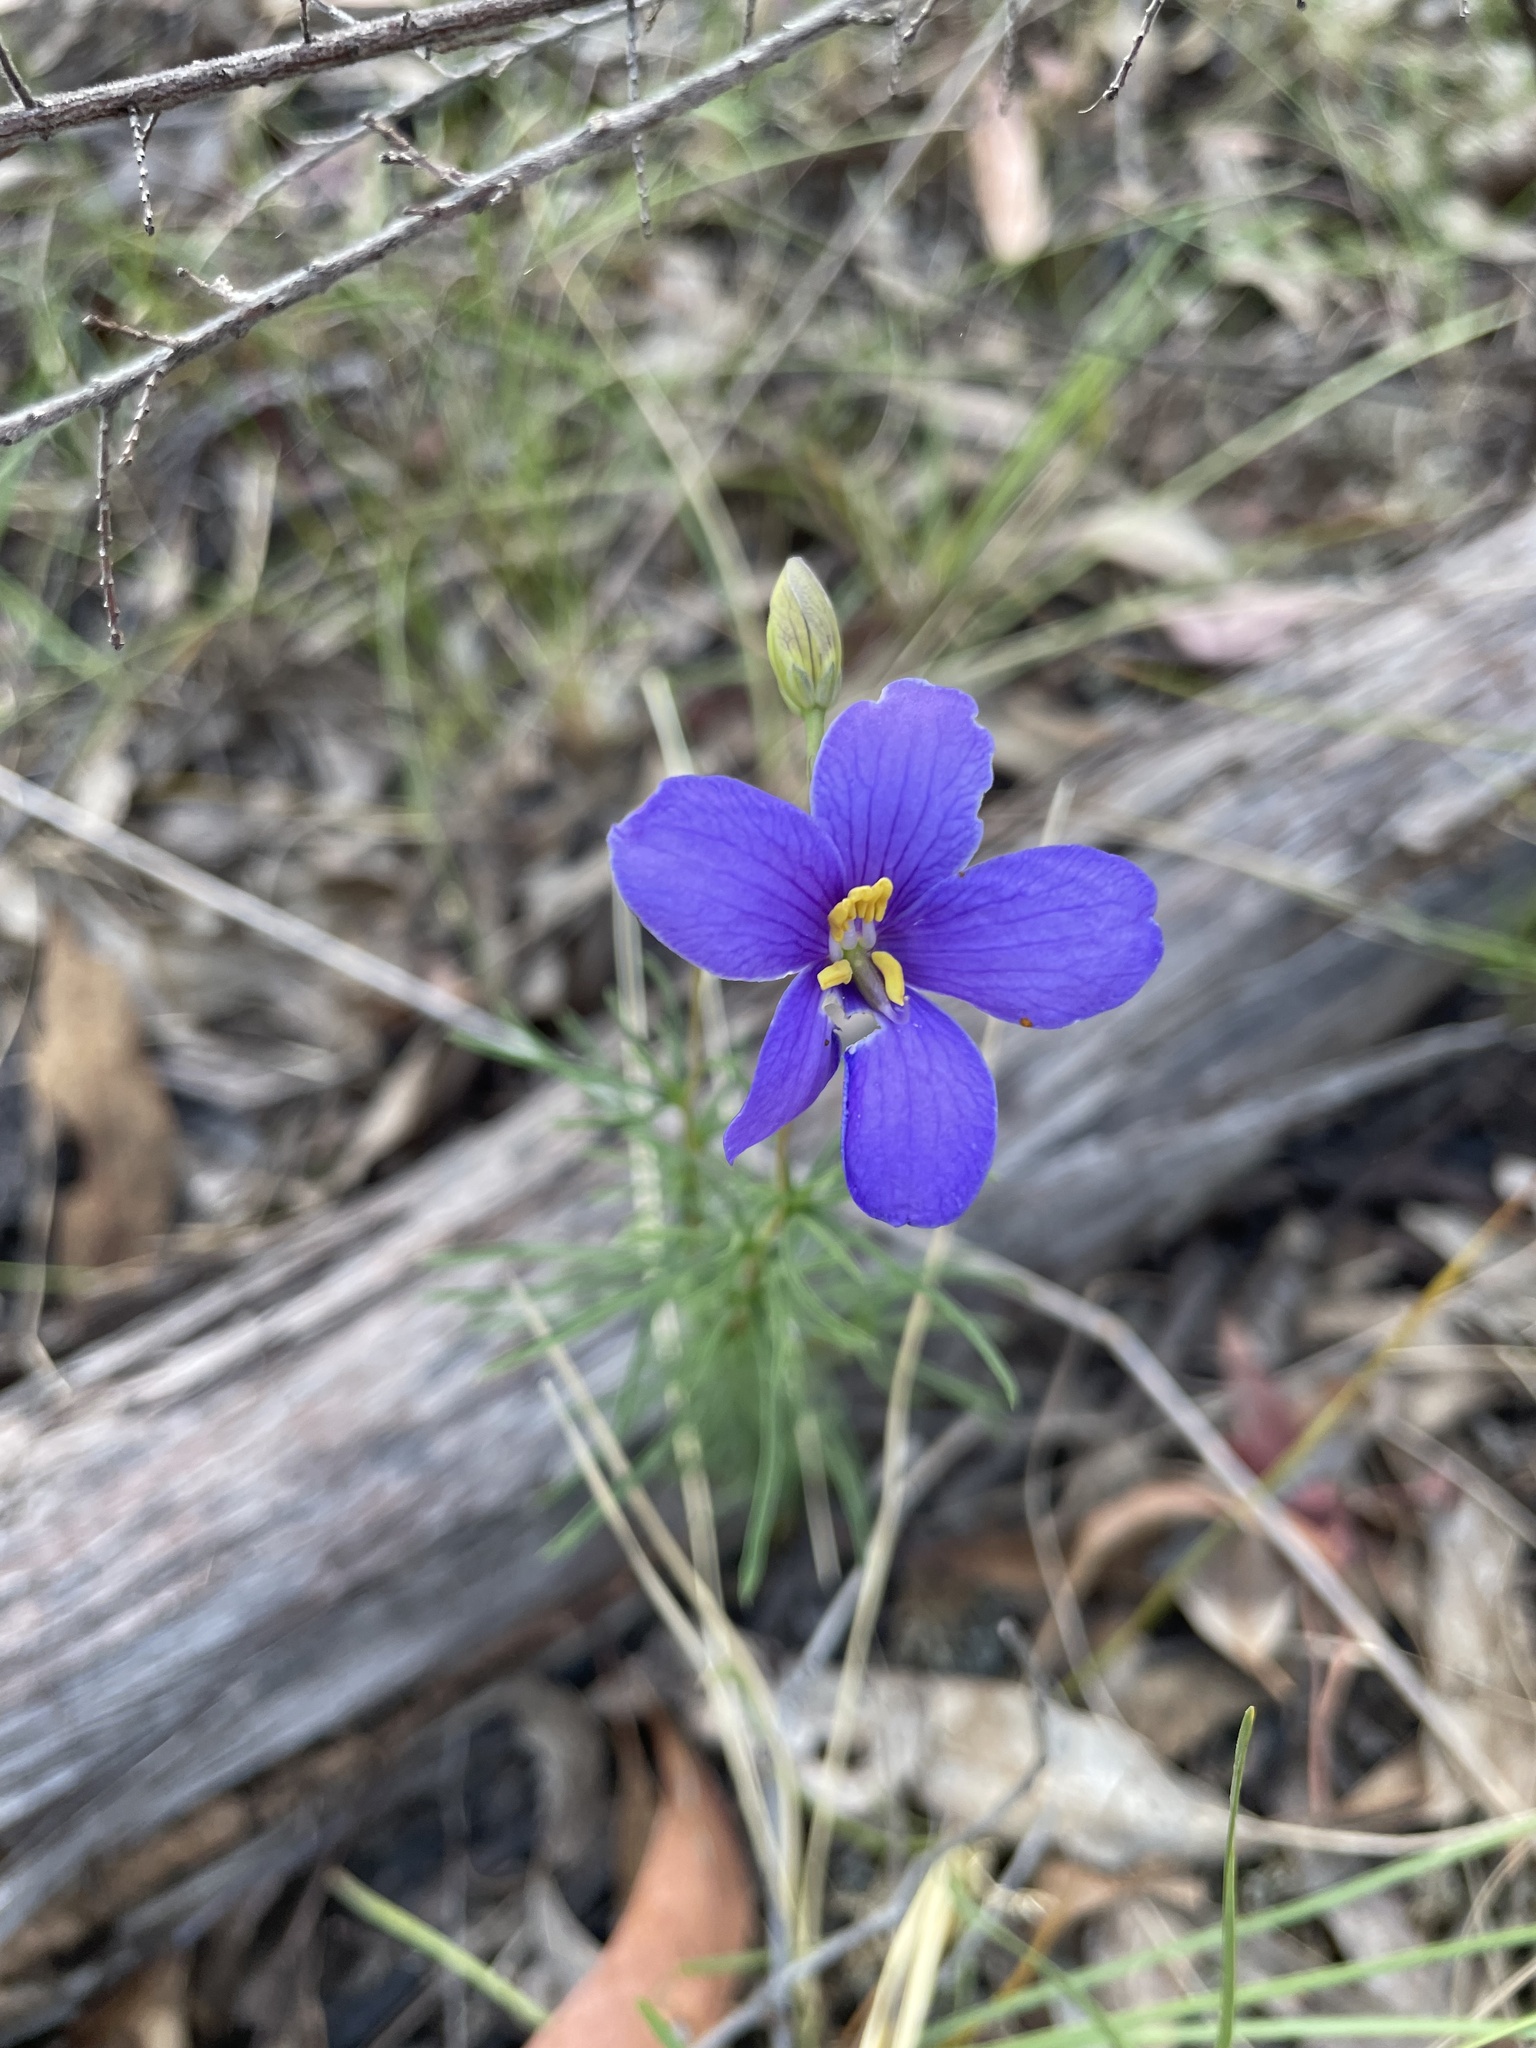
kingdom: Plantae
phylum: Tracheophyta
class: Magnoliopsida
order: Apiales
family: Pittosporaceae
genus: Cheiranthera
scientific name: Cheiranthera linearis
